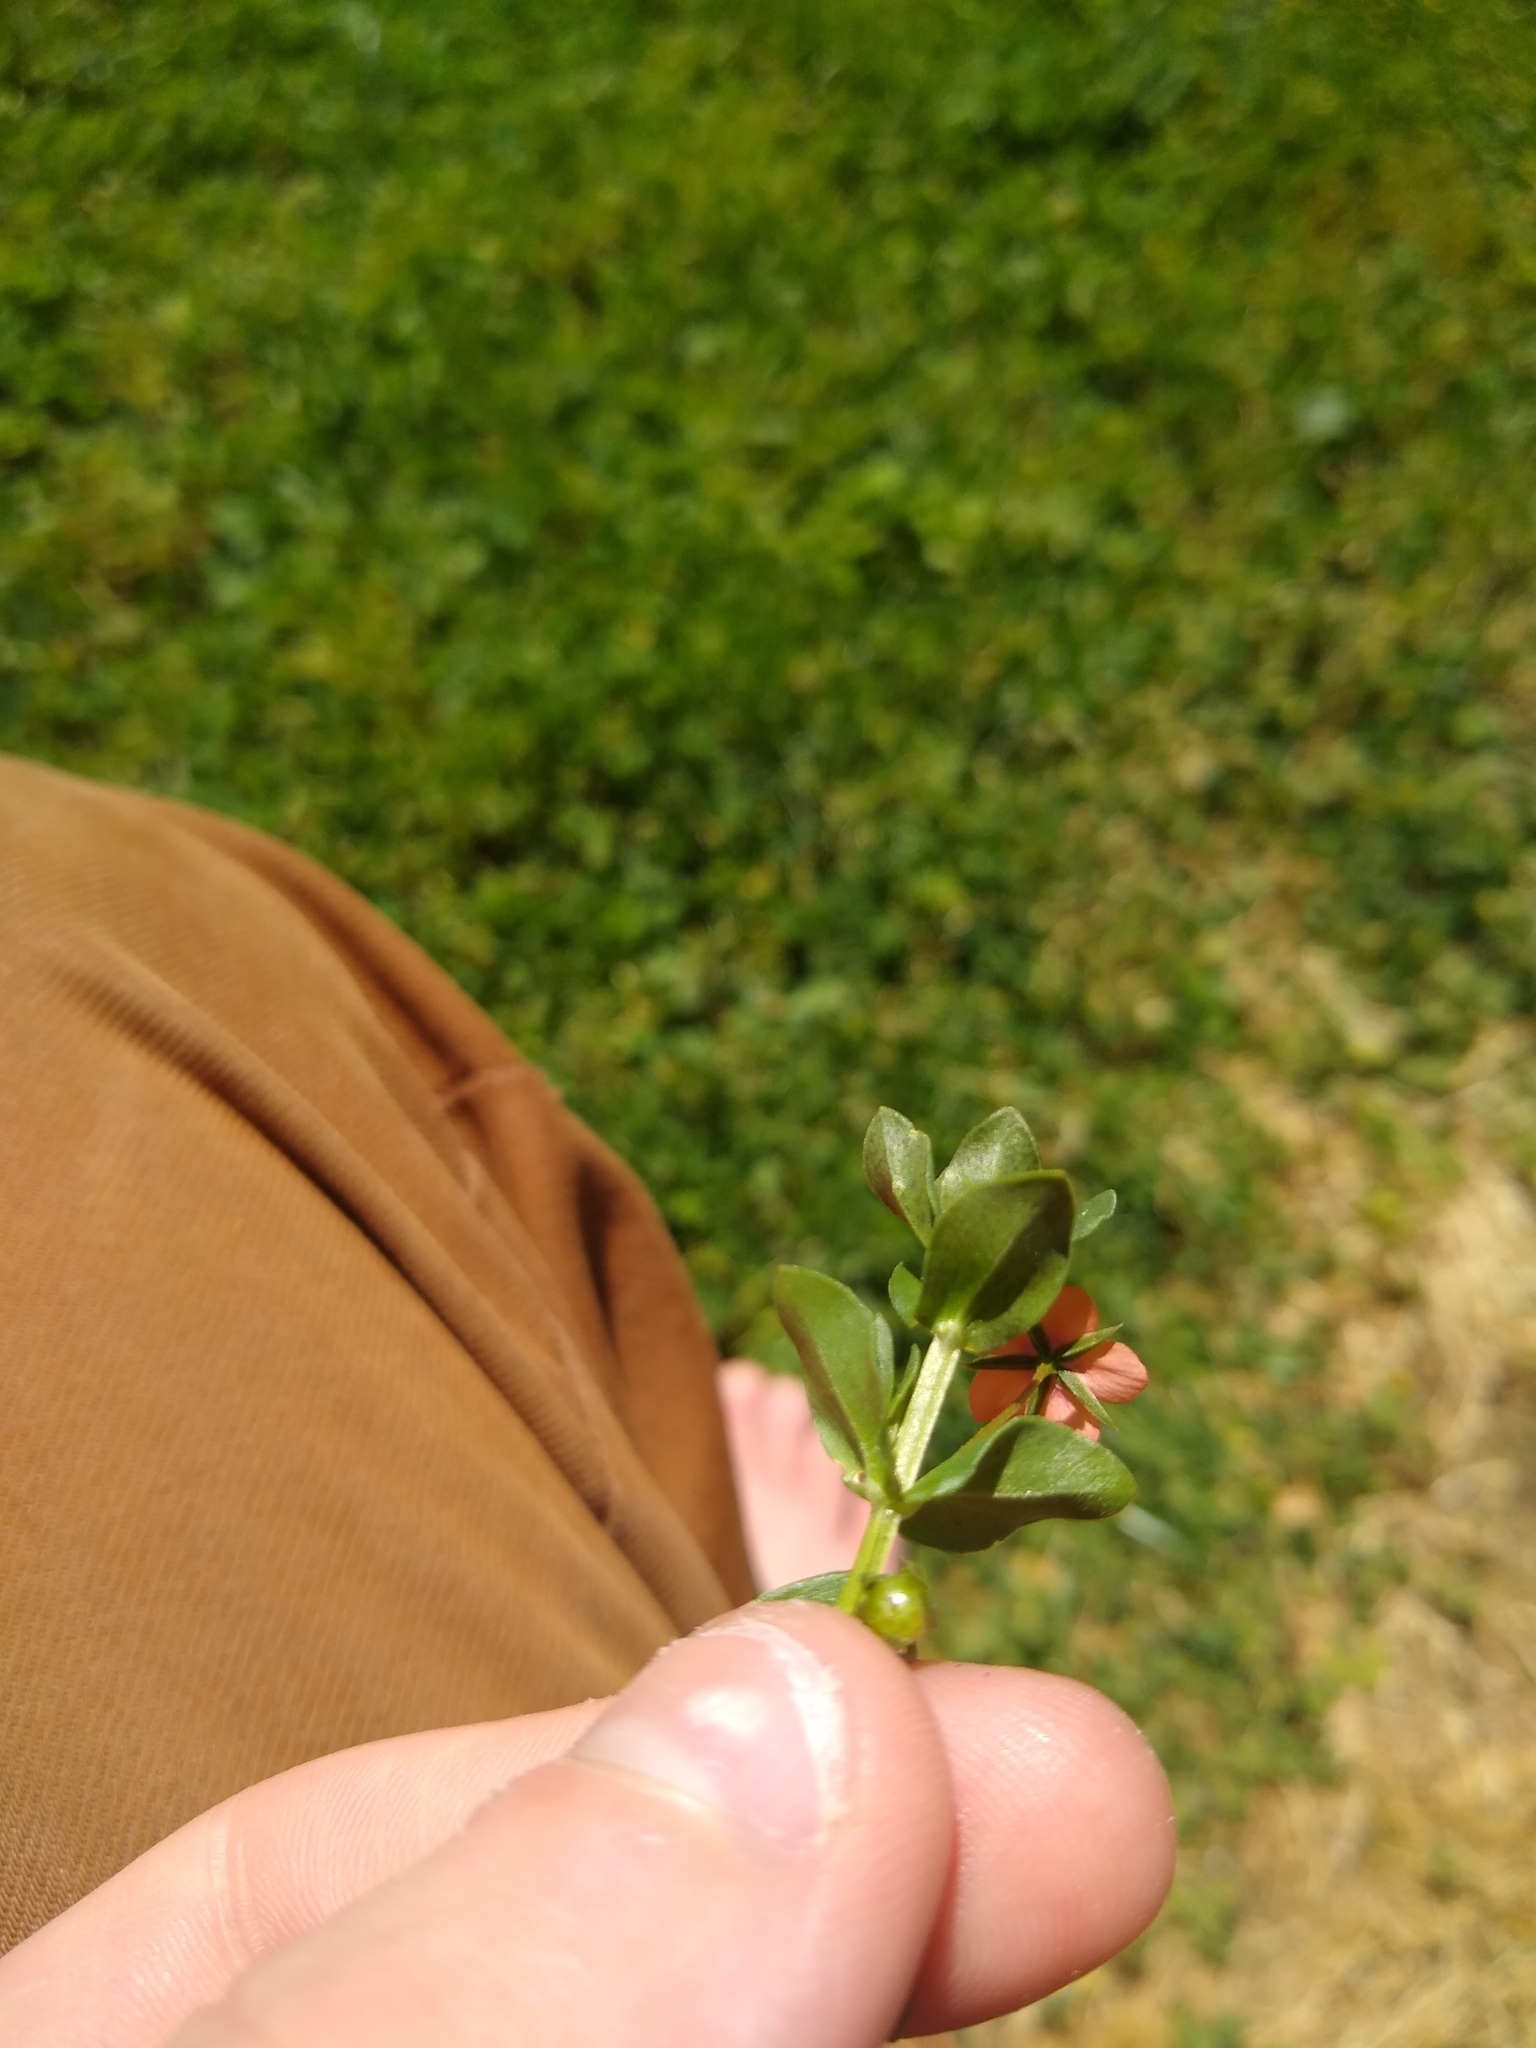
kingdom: Plantae
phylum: Tracheophyta
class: Magnoliopsida
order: Ericales
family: Primulaceae
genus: Lysimachia
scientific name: Lysimachia arvensis
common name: Scarlet pimpernel
